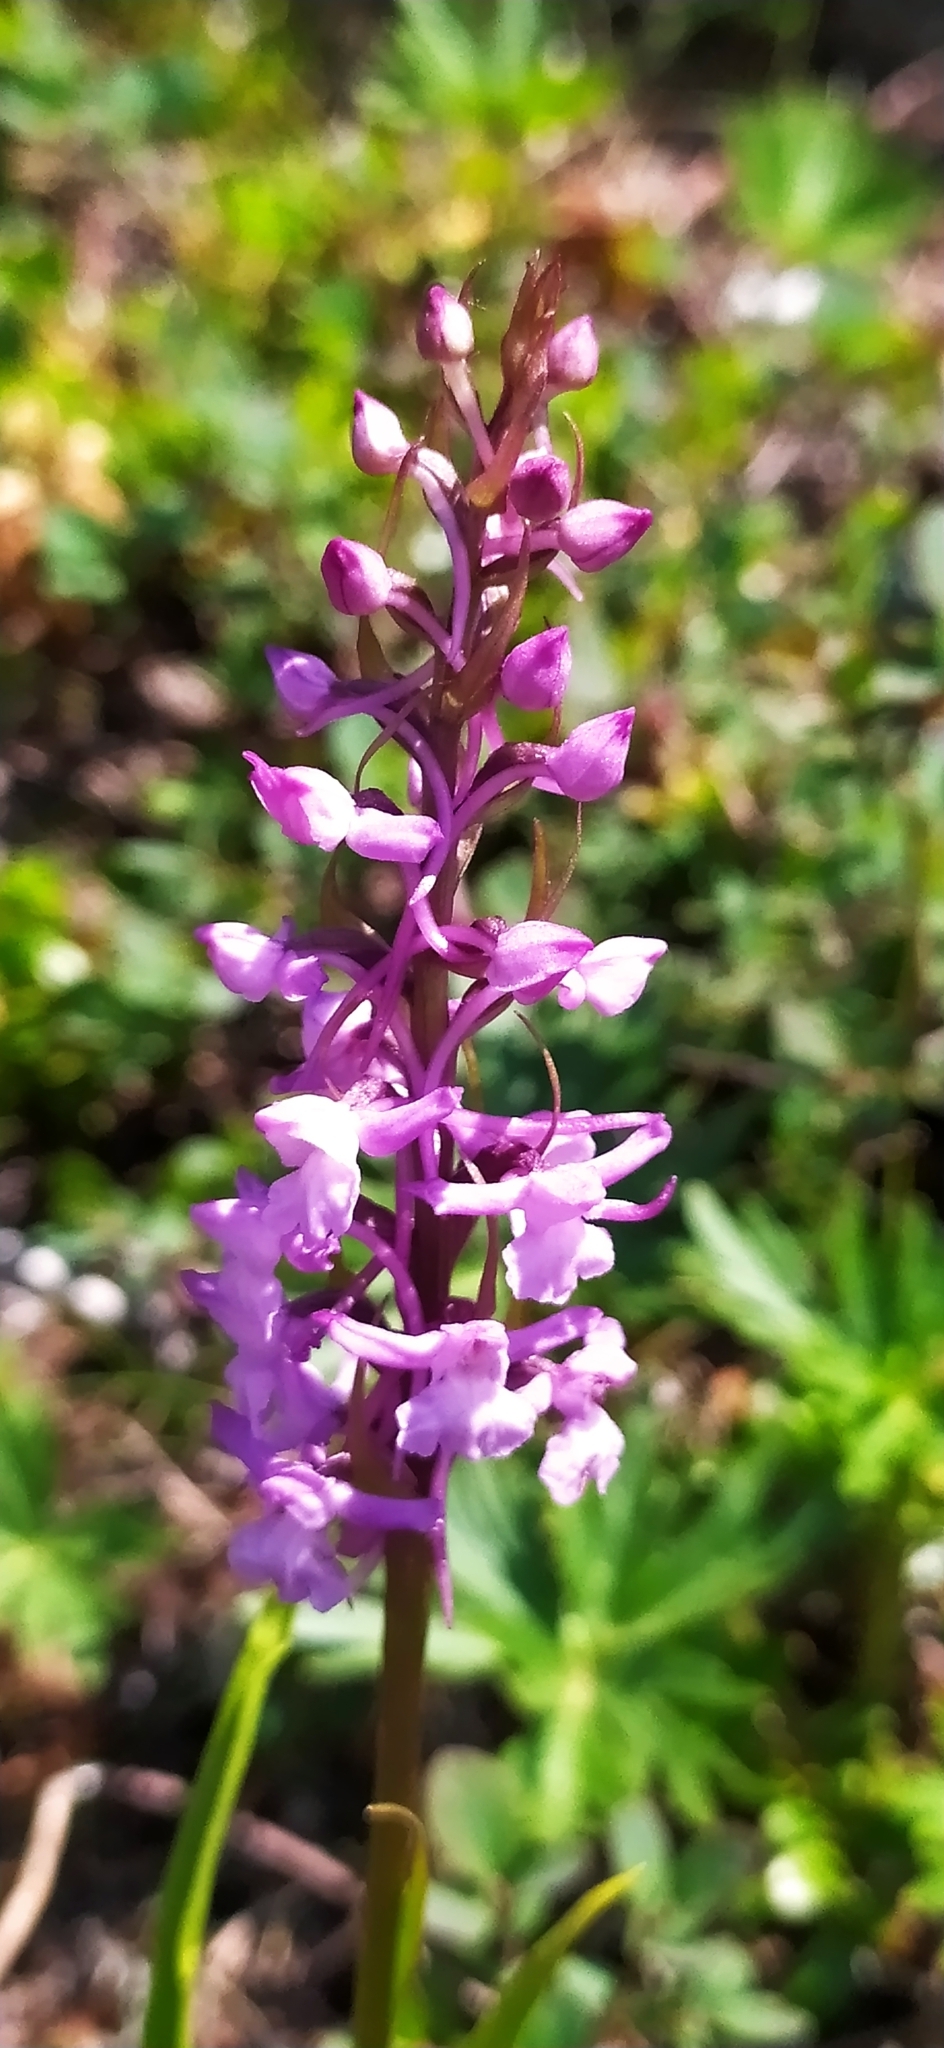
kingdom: Plantae
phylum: Tracheophyta
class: Liliopsida
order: Asparagales
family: Orchidaceae
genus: Gymnadenia
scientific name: Gymnadenia conopsea
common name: Fragrant orchid
